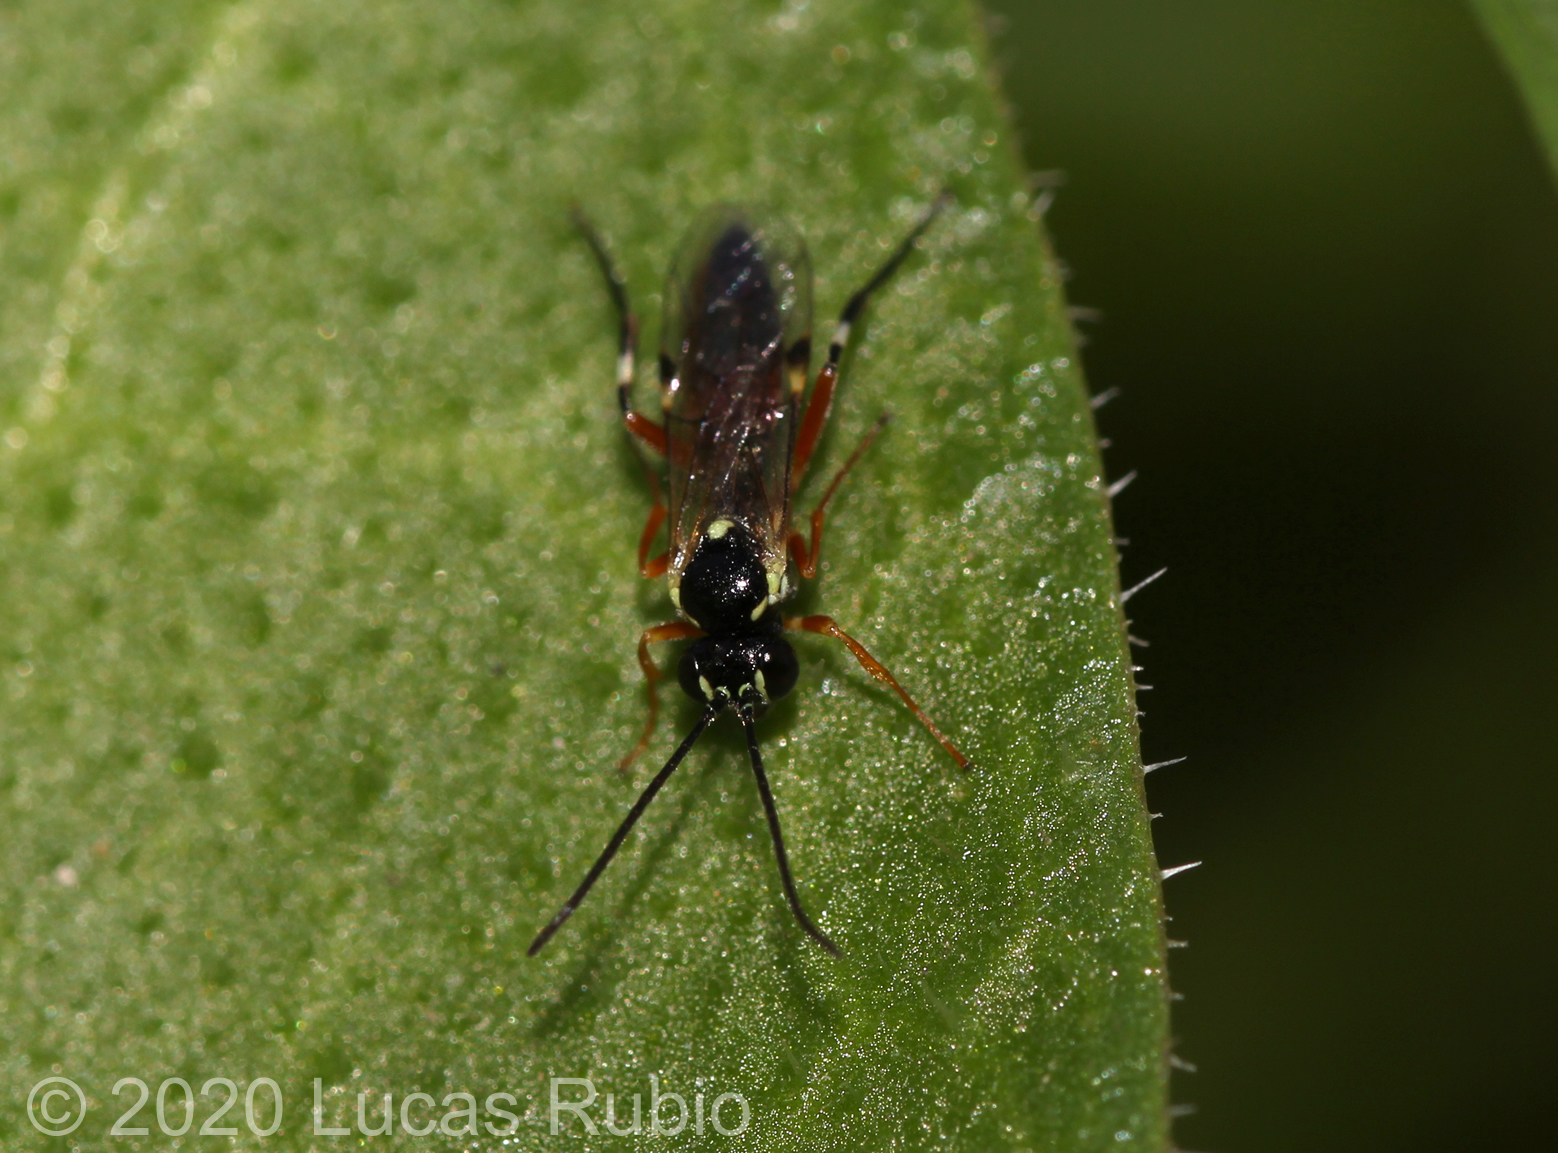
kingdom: Animalia
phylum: Arthropoda
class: Insecta
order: Hymenoptera
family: Ichneumonidae
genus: Diplazon
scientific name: Diplazon laetatorius
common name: Parasitoid wasp
